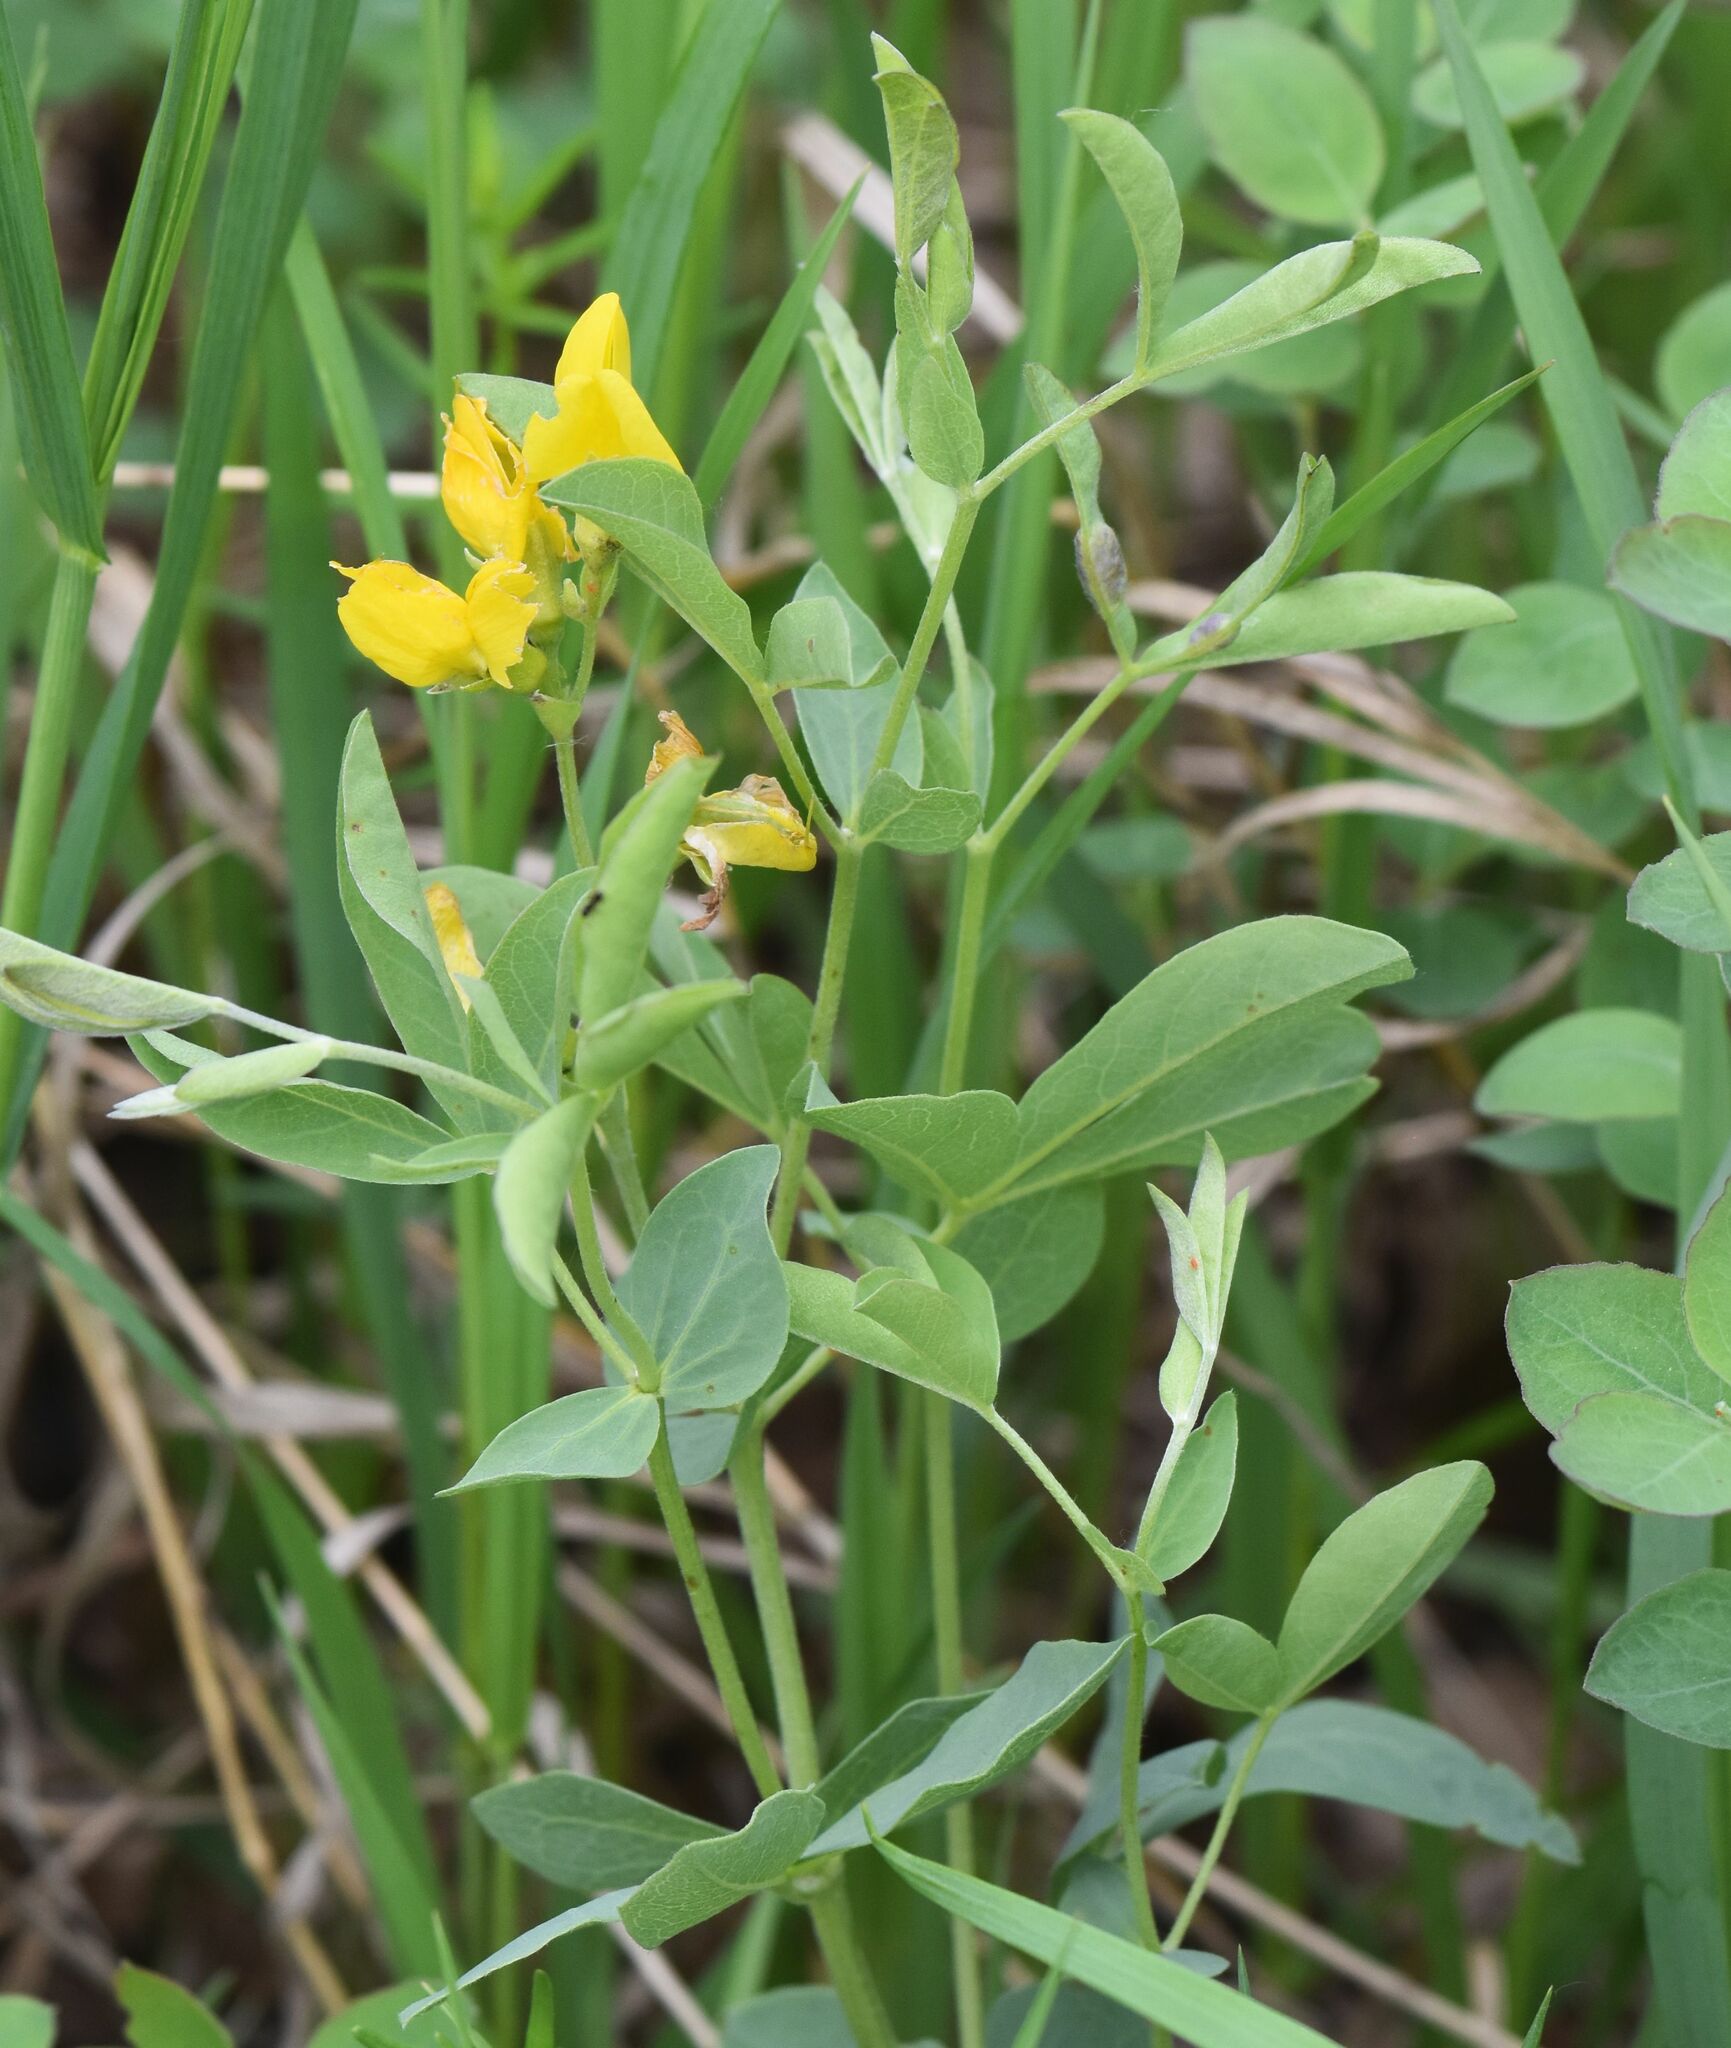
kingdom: Plantae
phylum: Tracheophyta
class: Magnoliopsida
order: Fabales
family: Fabaceae
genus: Thermopsis
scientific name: Thermopsis rhombifolia
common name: Circle-pod-pea
